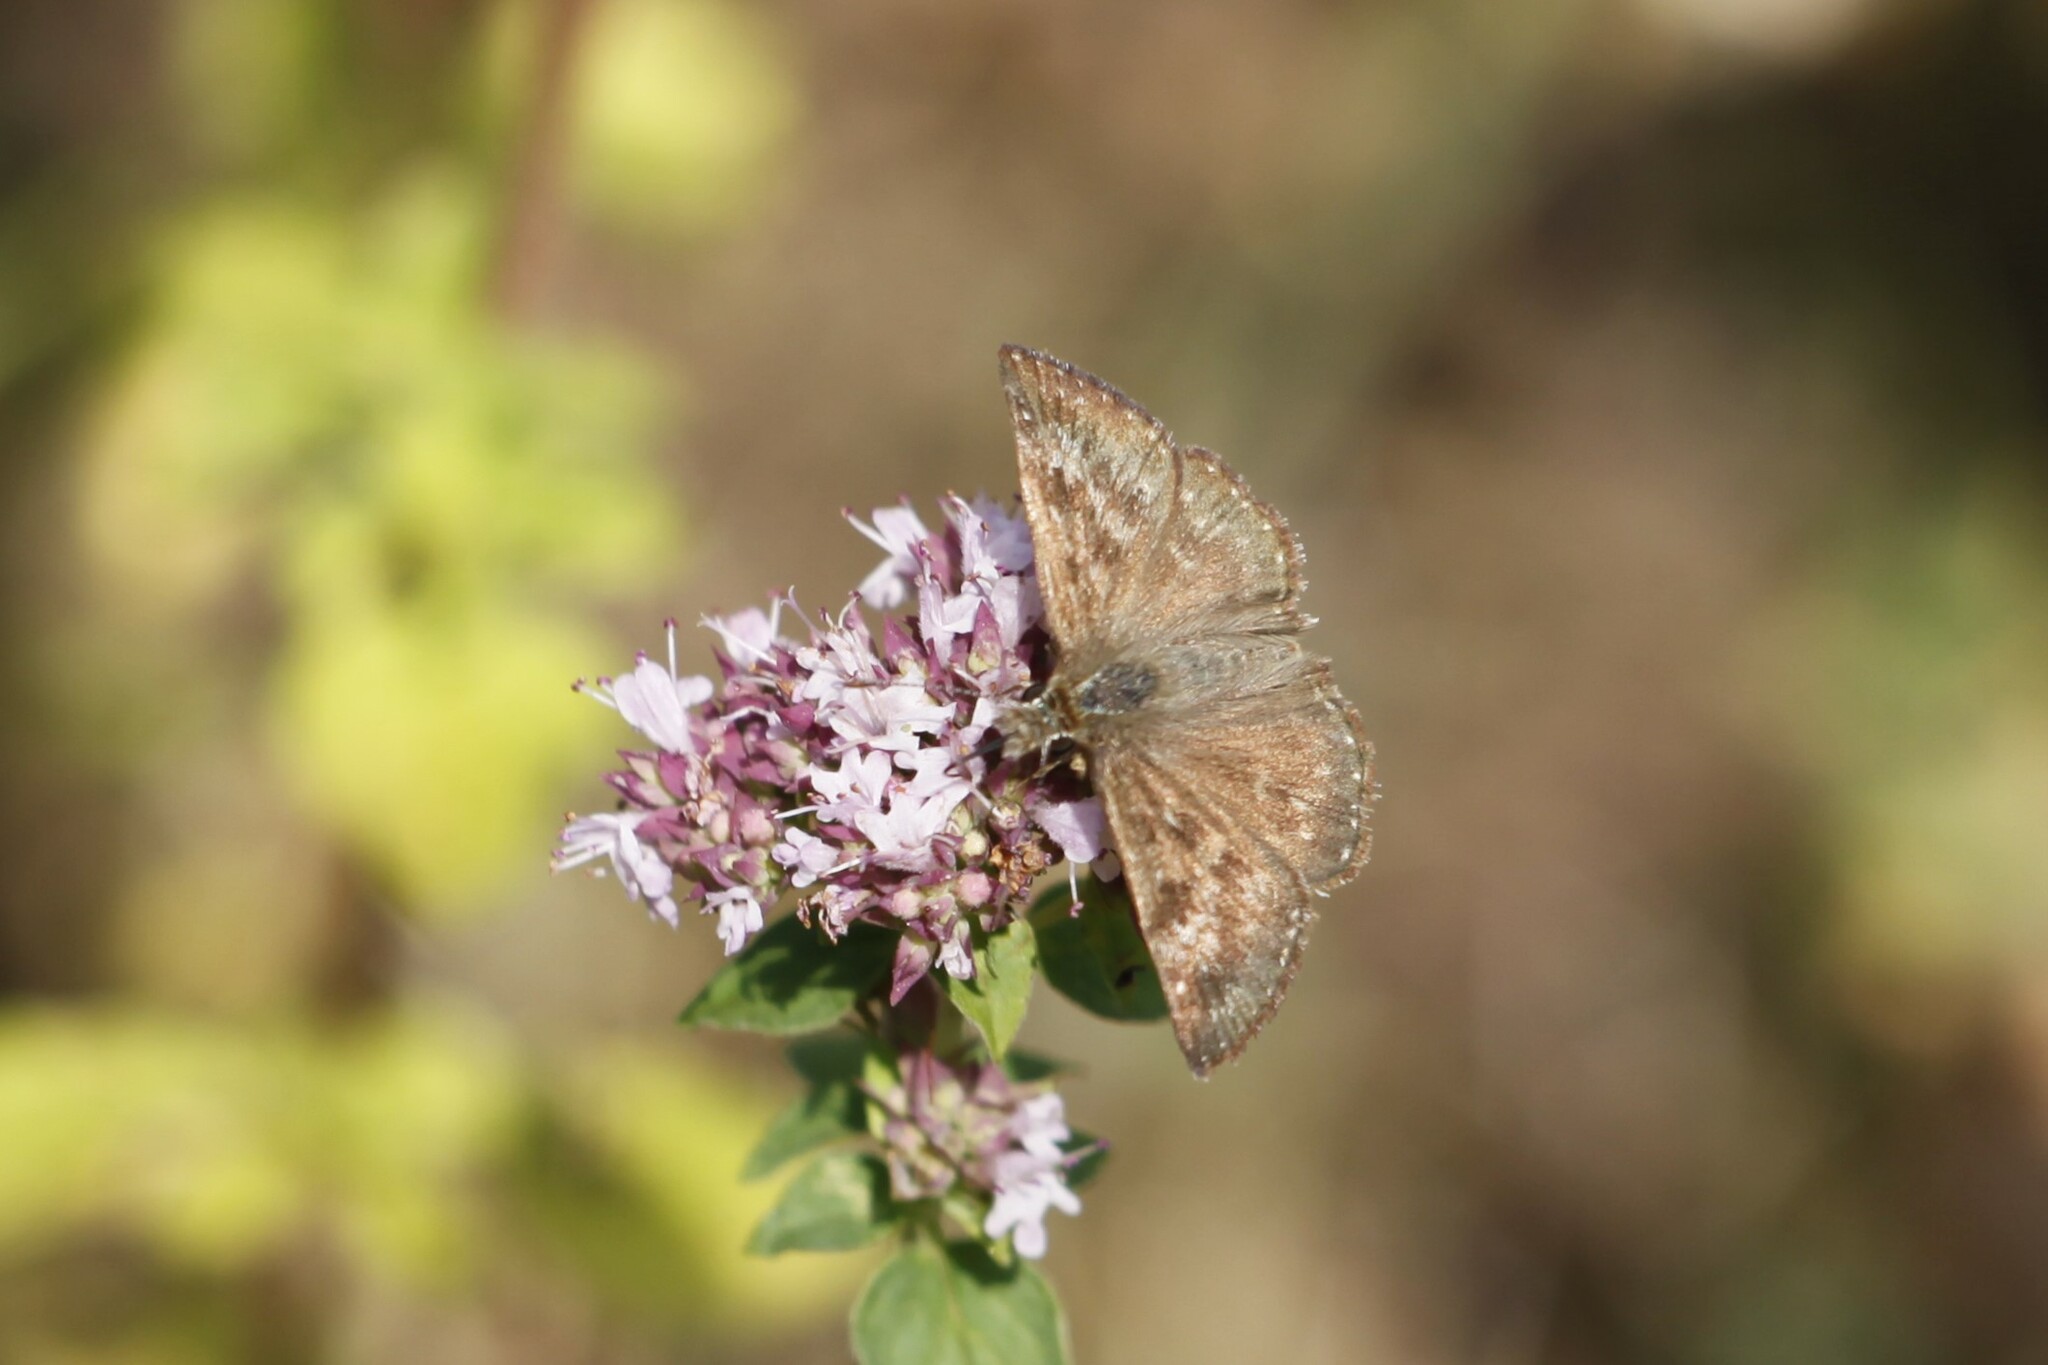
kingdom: Animalia
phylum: Arthropoda
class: Insecta
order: Lepidoptera
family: Hesperiidae
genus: Erynnis
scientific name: Erynnis tages
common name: Dingy skipper
